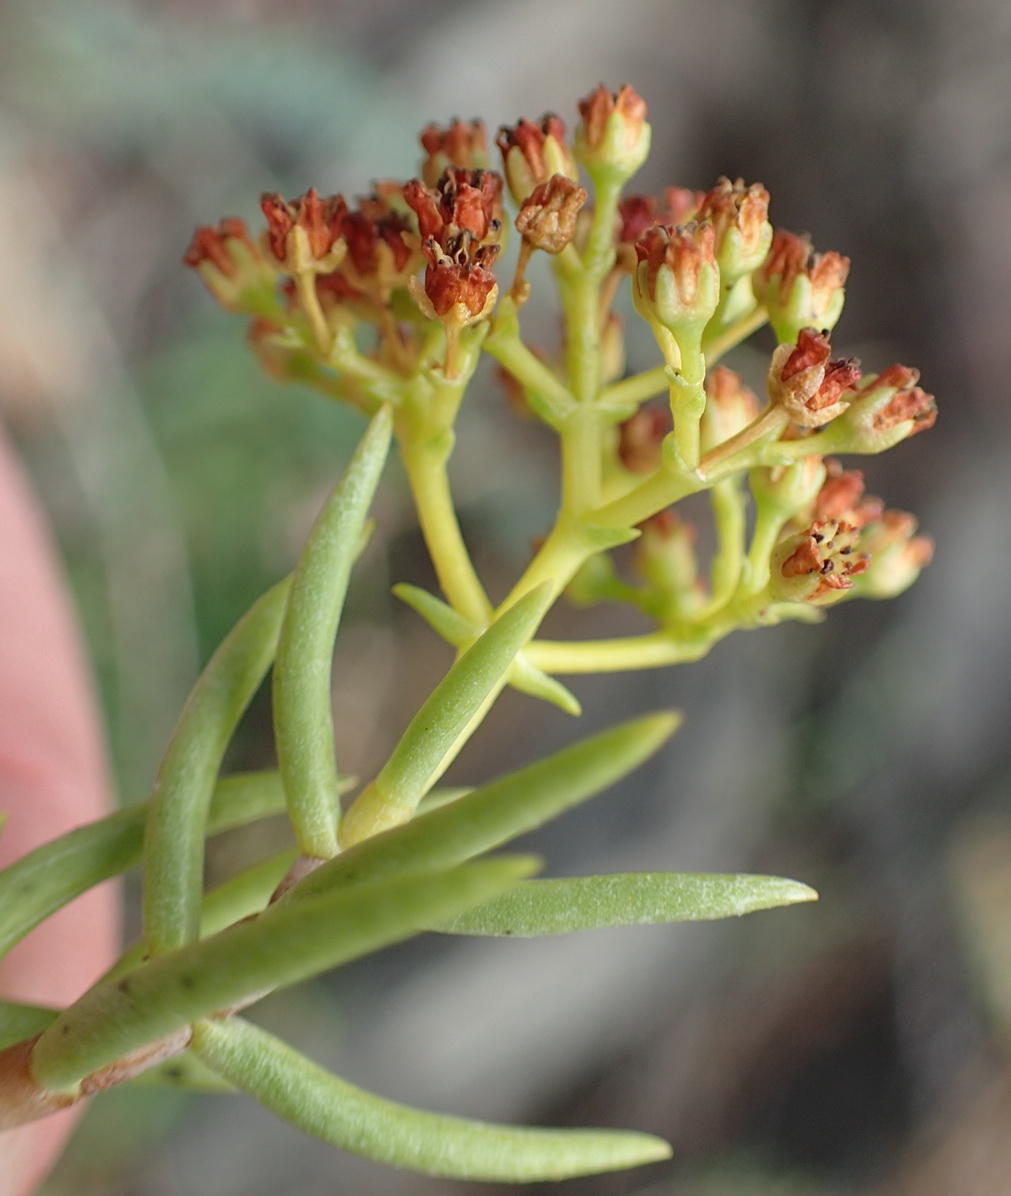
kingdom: Plantae
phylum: Tracheophyta
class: Magnoliopsida
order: Saxifragales
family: Crassulaceae
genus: Crassula
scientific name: Crassula tetragona
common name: Pygmyweed
